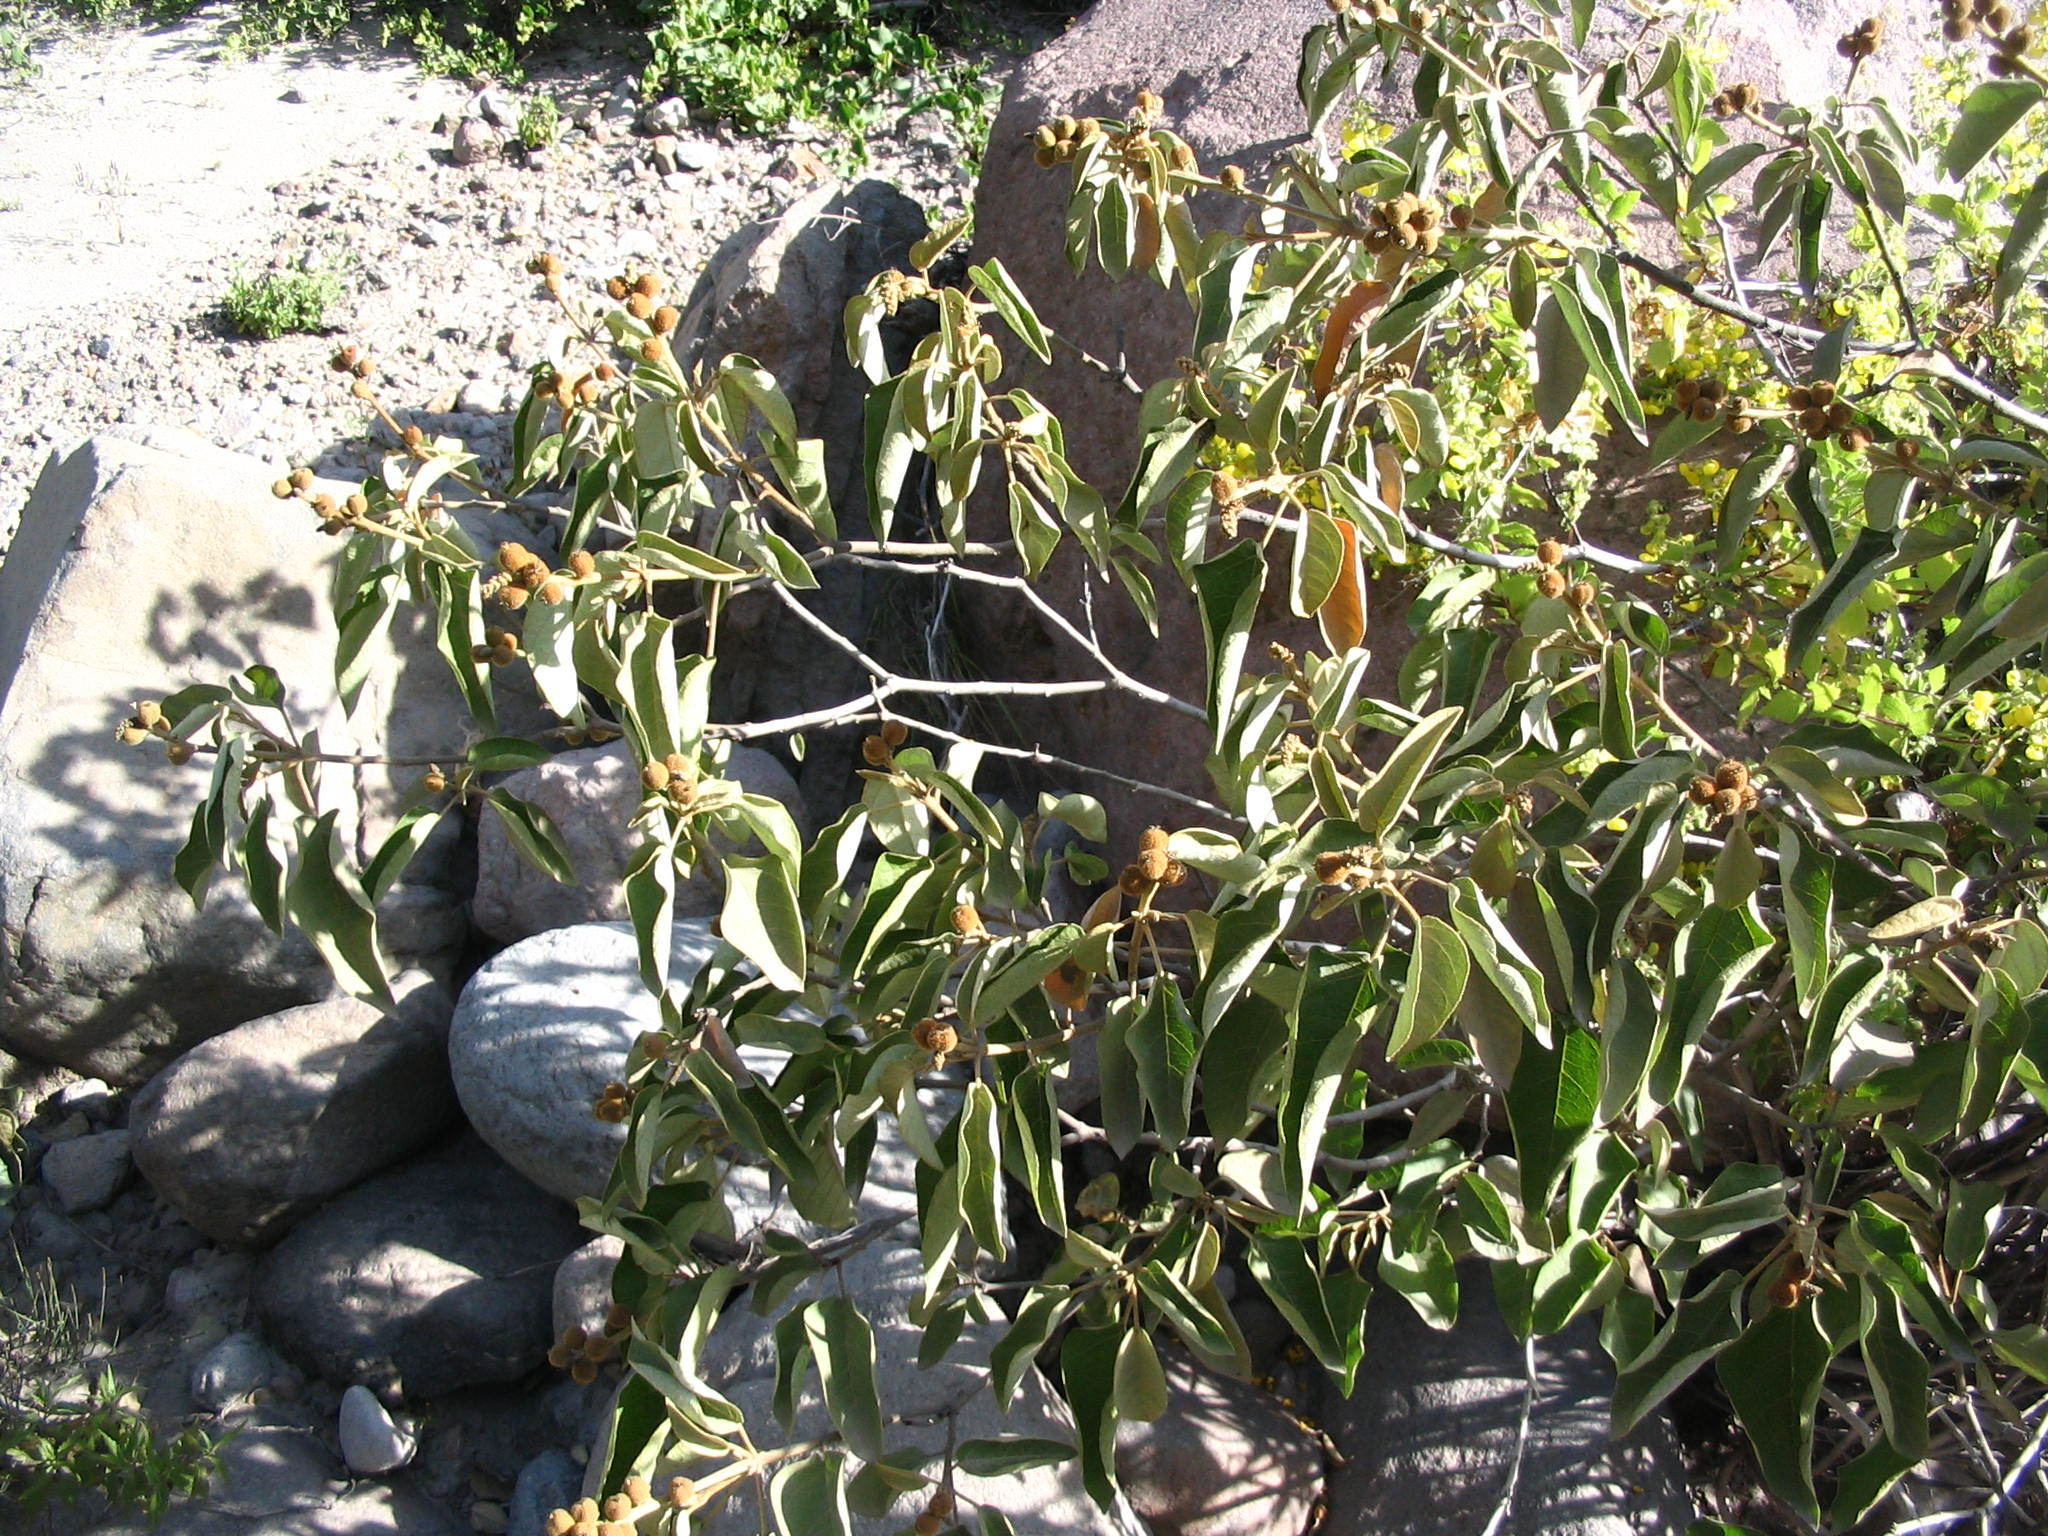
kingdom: Plantae
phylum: Tracheophyta
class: Magnoliopsida
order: Malpighiales
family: Euphorbiaceae
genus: Croton
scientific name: Croton ruizianus
